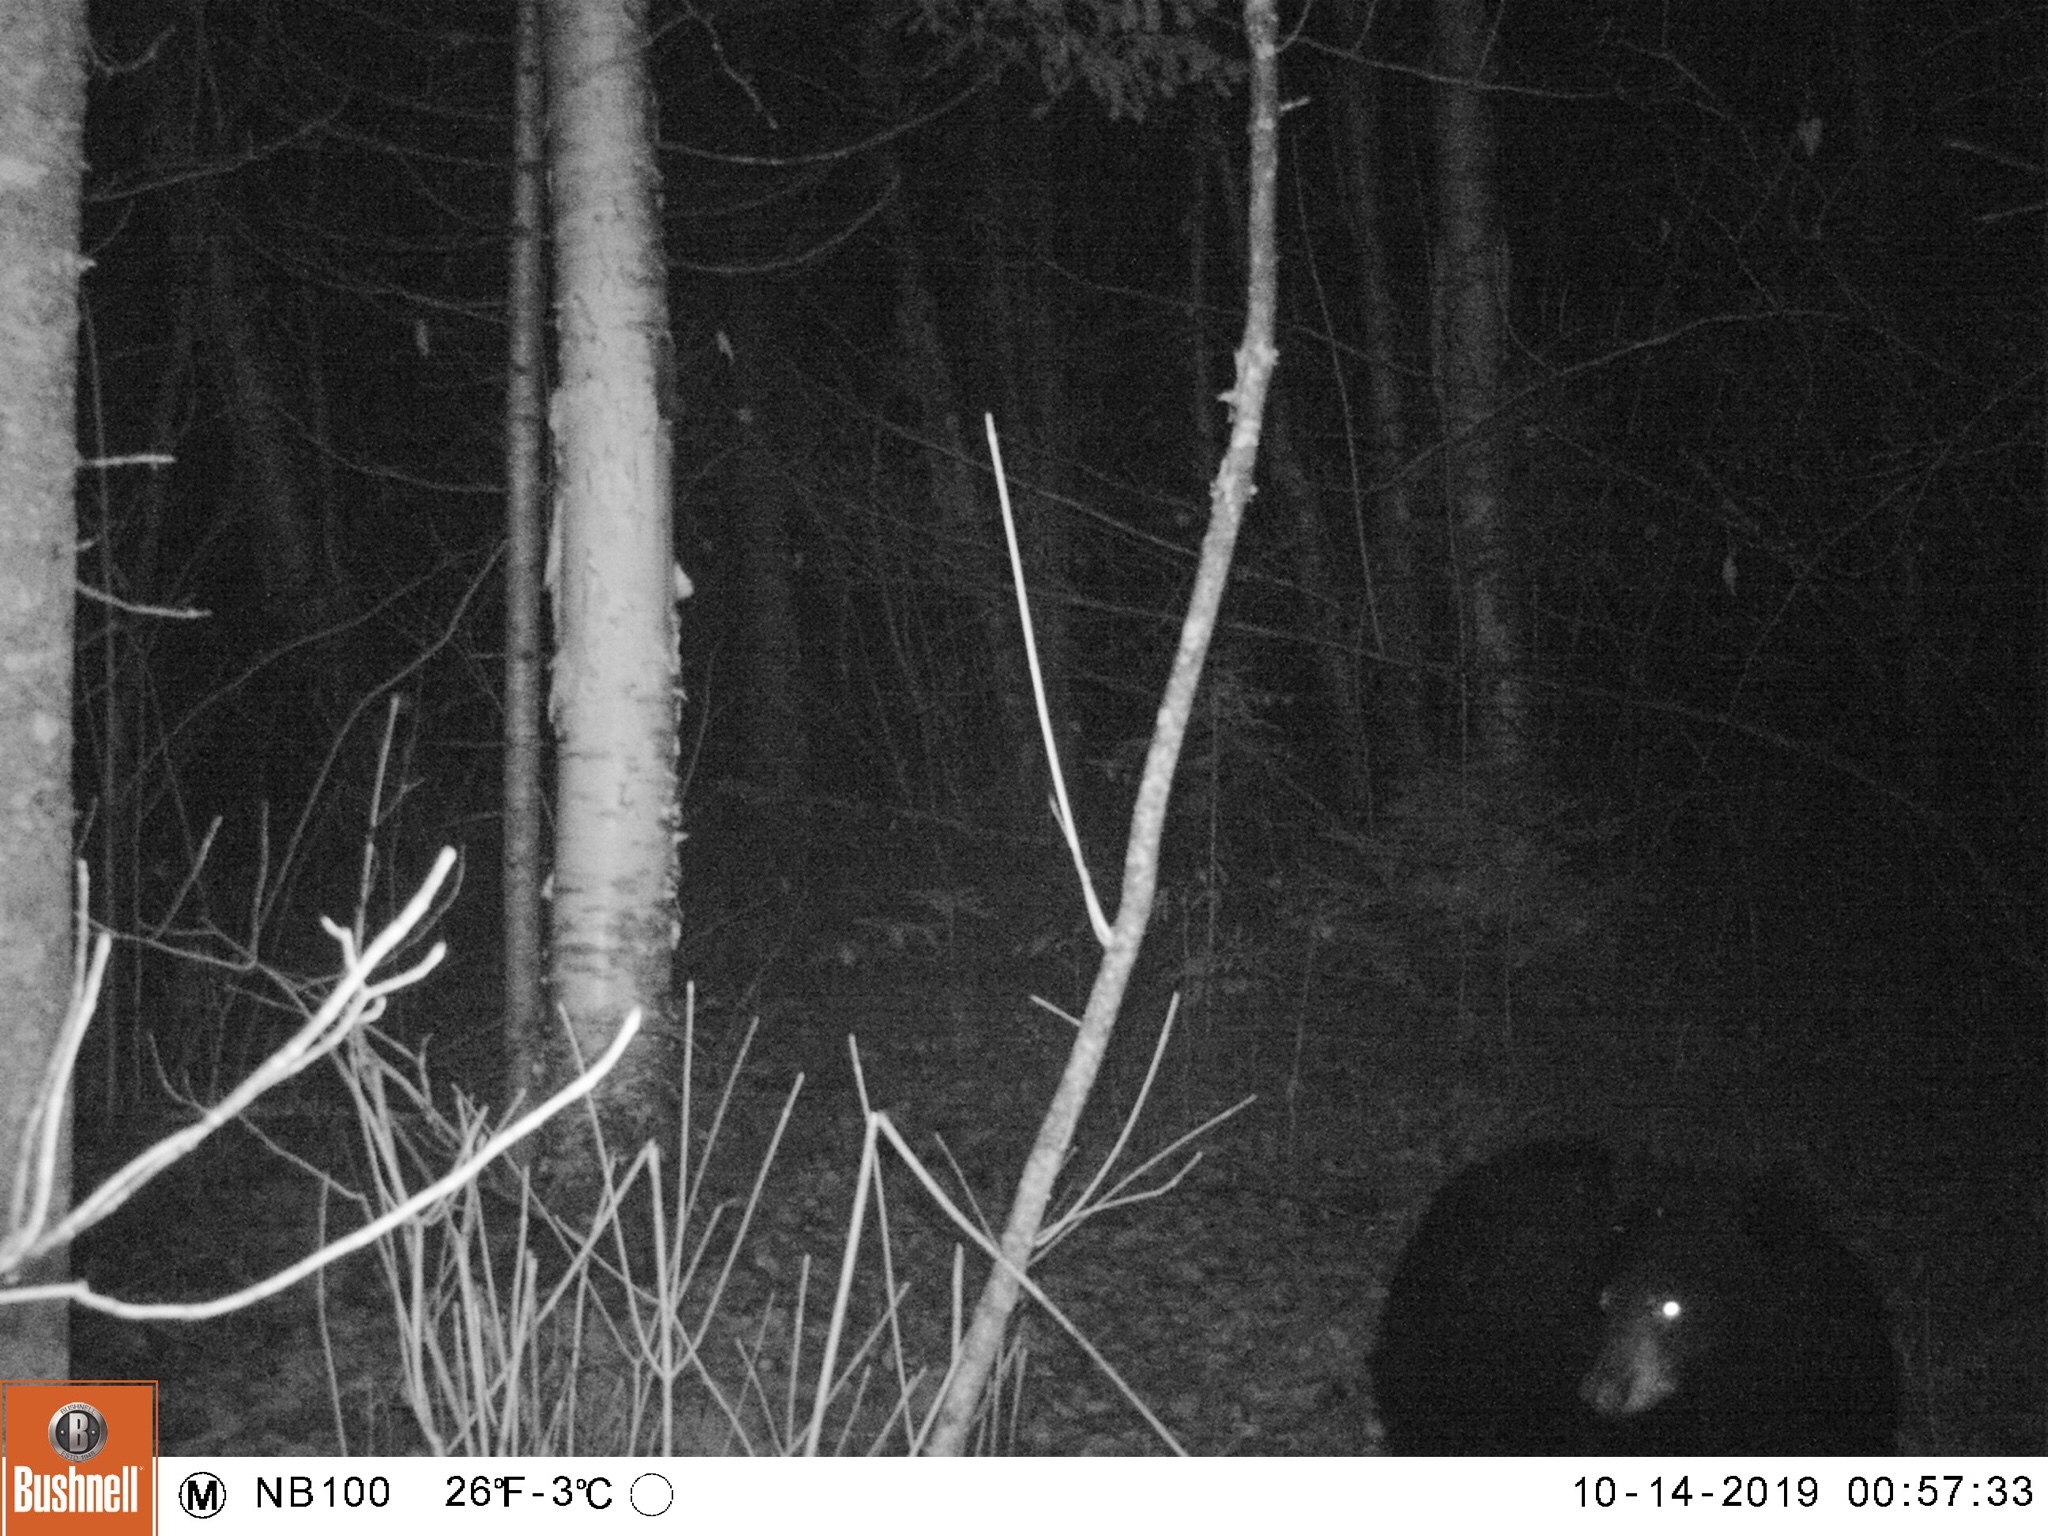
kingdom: Animalia
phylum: Chordata
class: Mammalia
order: Carnivora
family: Ursidae
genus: Ursus
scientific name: Ursus americanus
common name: American black bear
